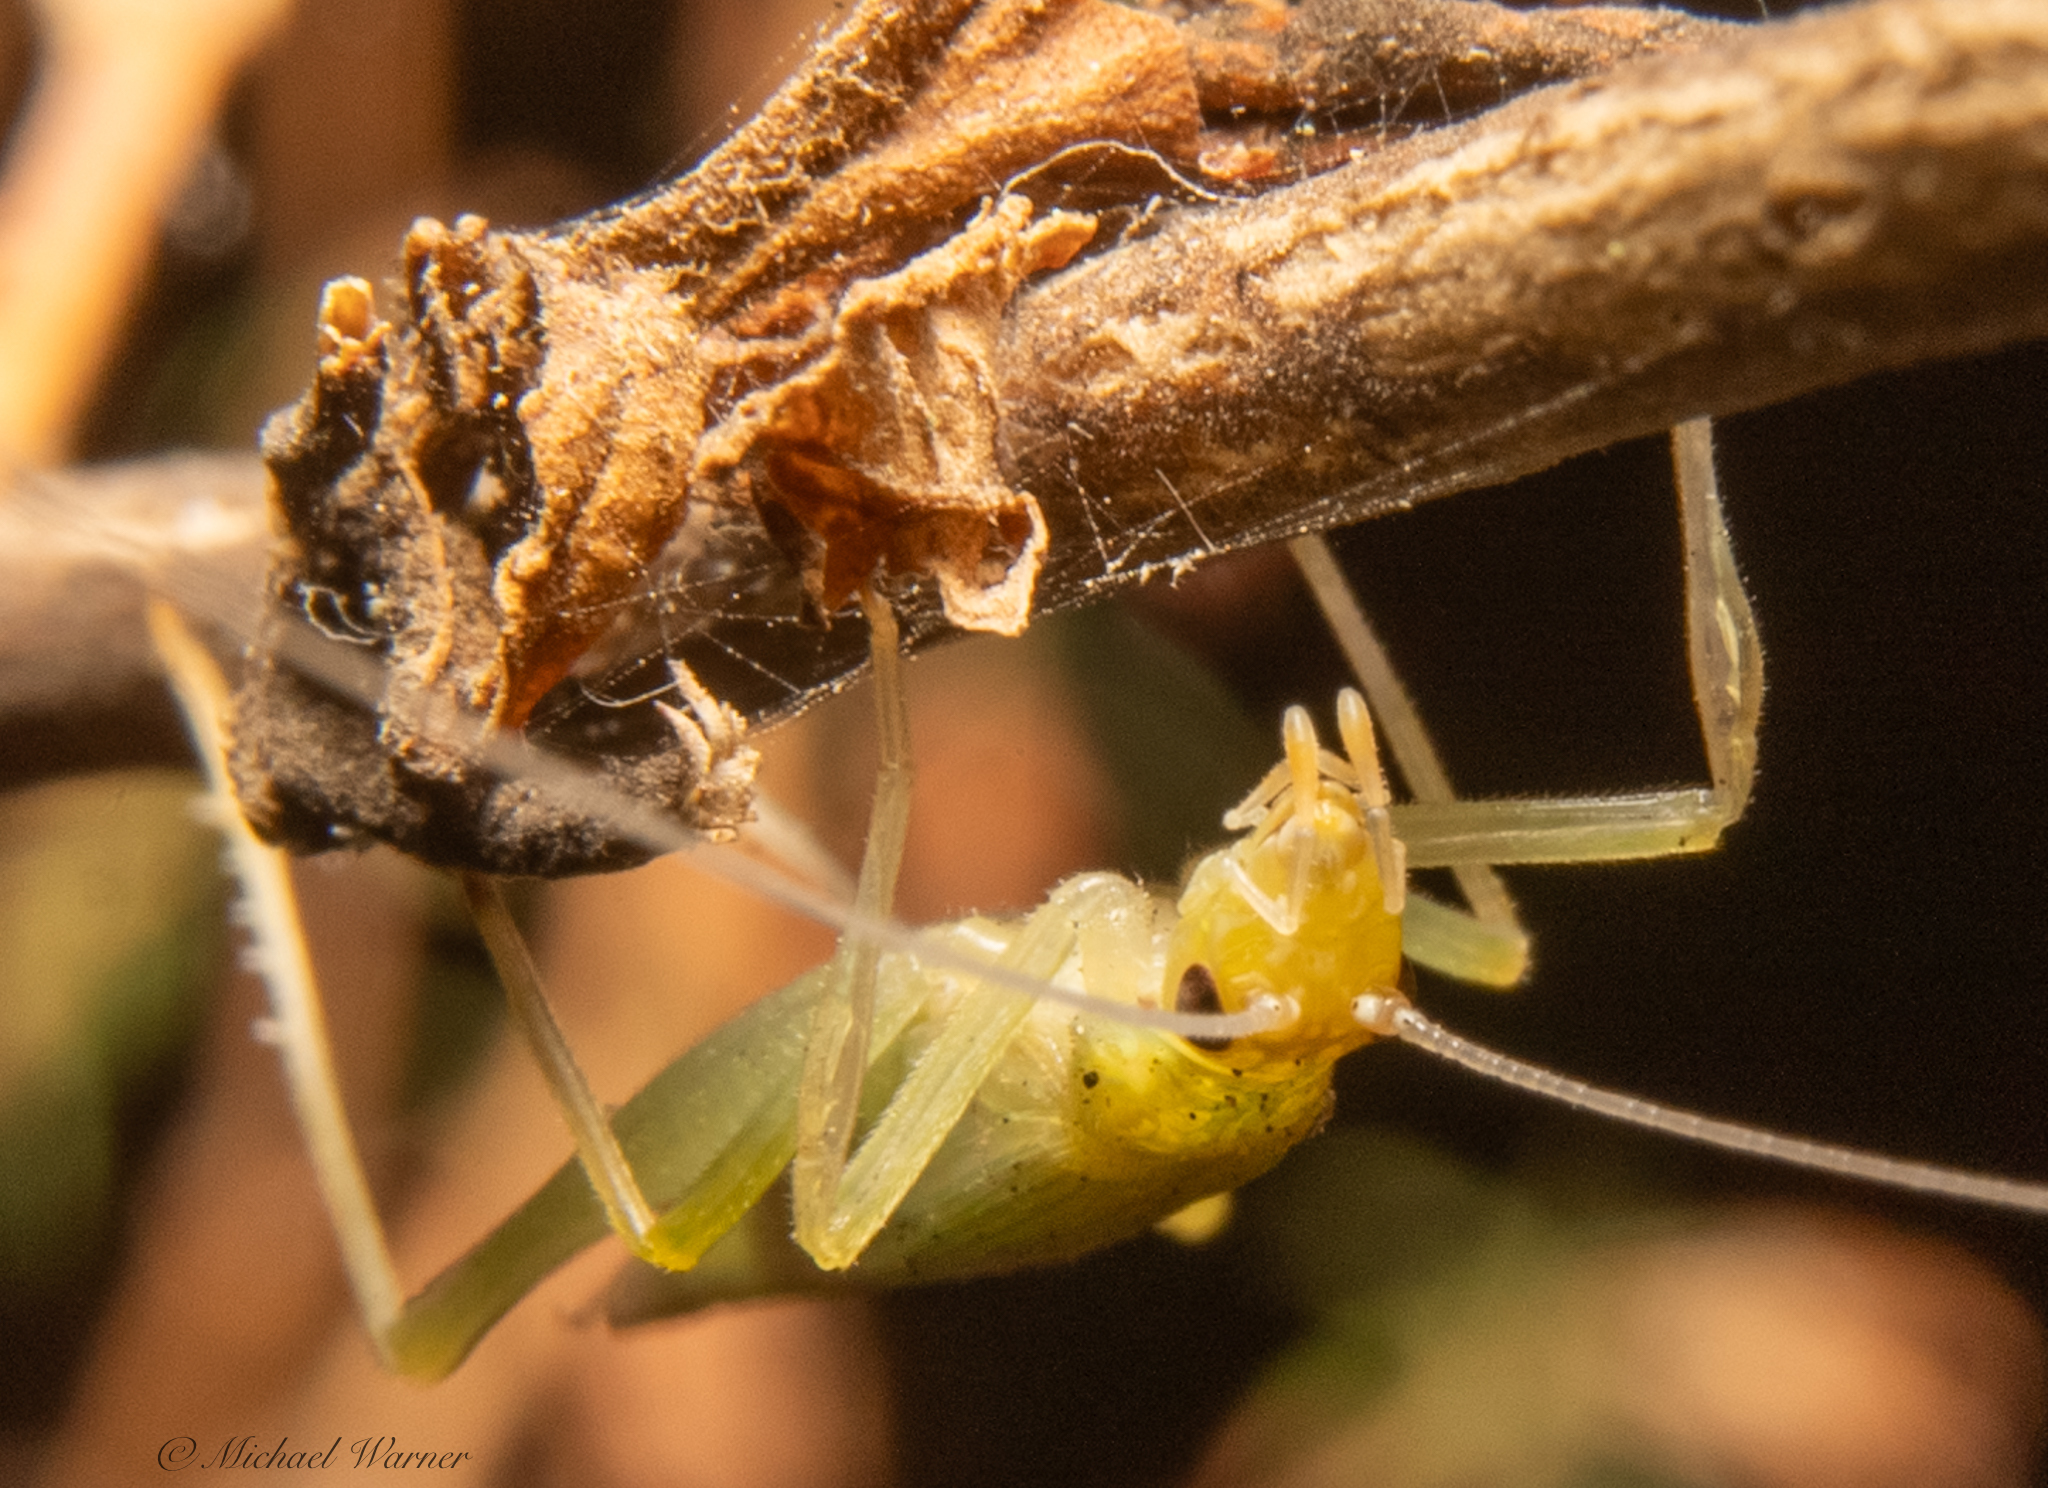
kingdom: Animalia
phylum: Arthropoda
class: Insecta
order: Orthoptera
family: Gryllidae
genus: Oecanthus
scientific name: Oecanthus rileyi
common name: Riley's tree cricket
